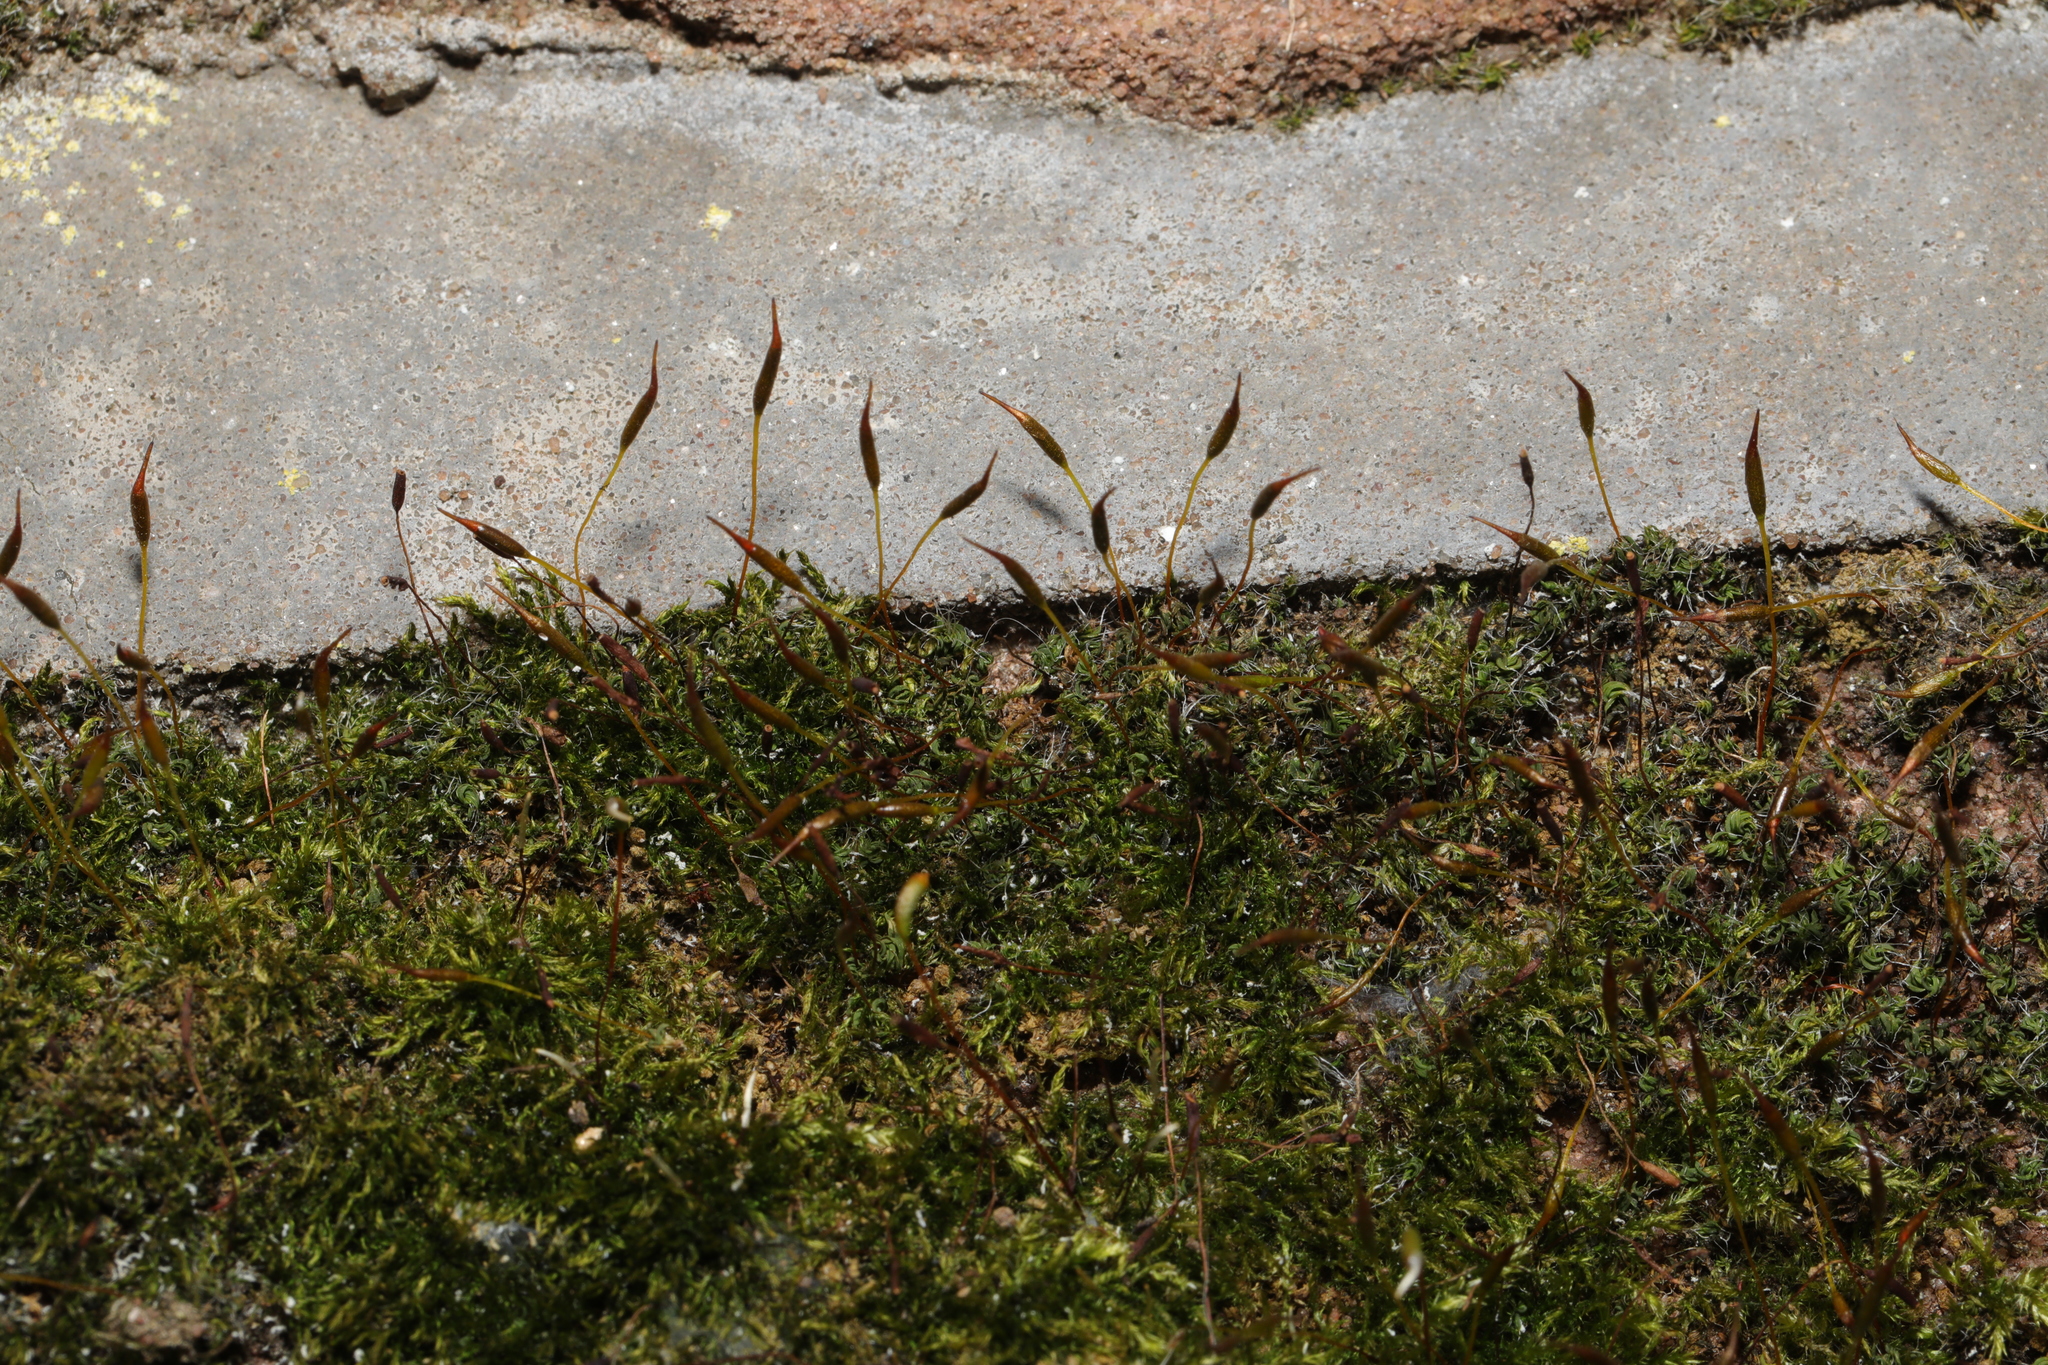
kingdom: Plantae
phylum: Bryophyta
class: Bryopsida
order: Pottiales
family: Pottiaceae
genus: Tortula
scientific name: Tortula muralis
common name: Wall screw-moss
